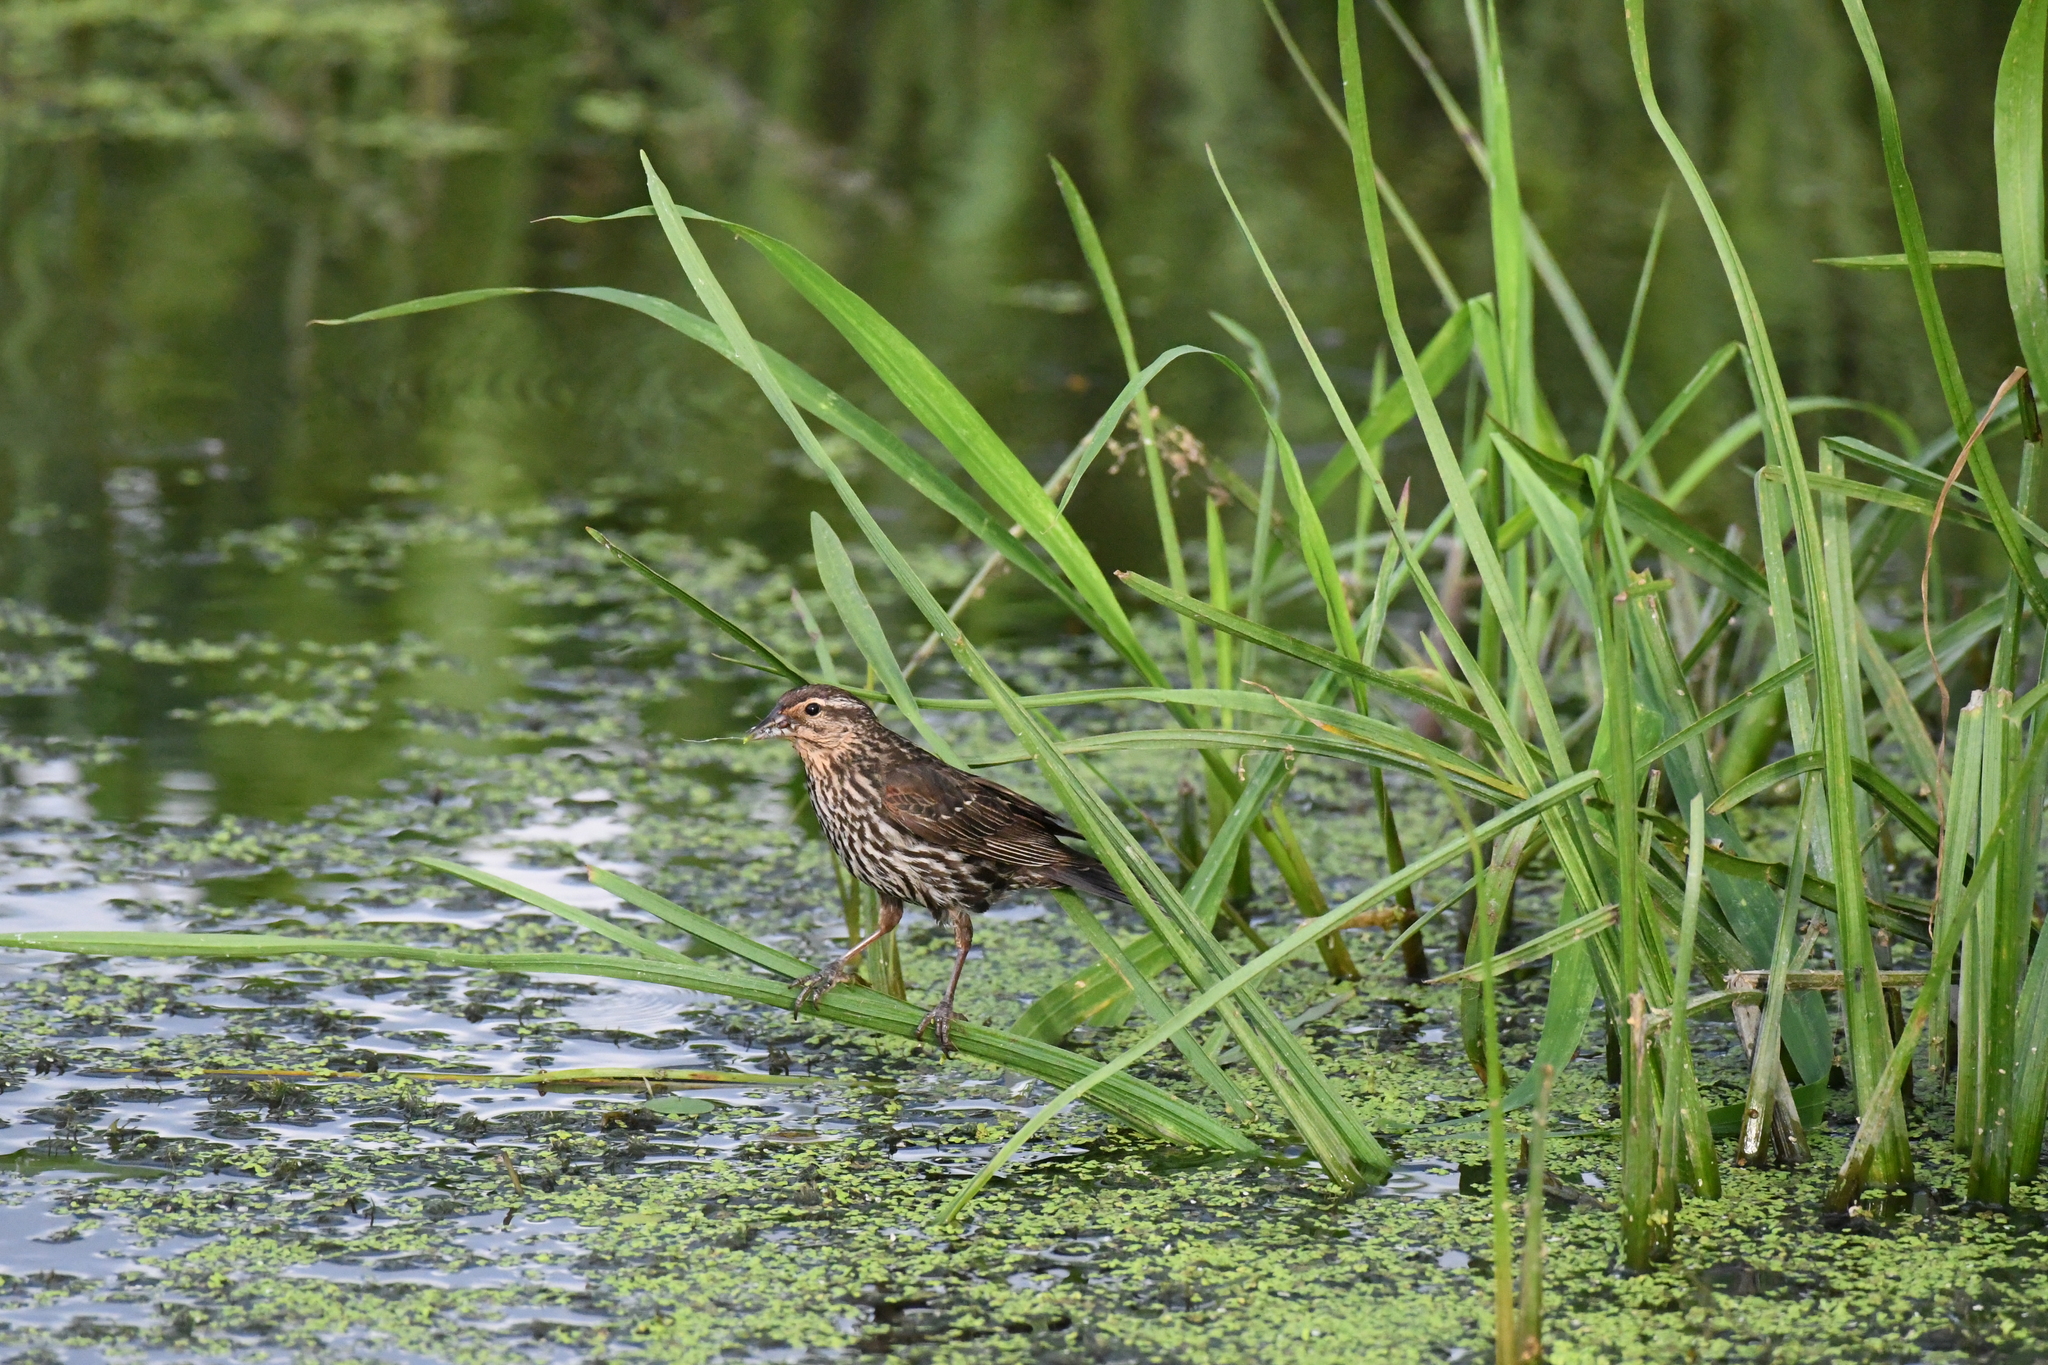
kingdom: Animalia
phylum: Chordata
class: Aves
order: Passeriformes
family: Icteridae
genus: Agelaius
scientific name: Agelaius phoeniceus
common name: Red-winged blackbird
